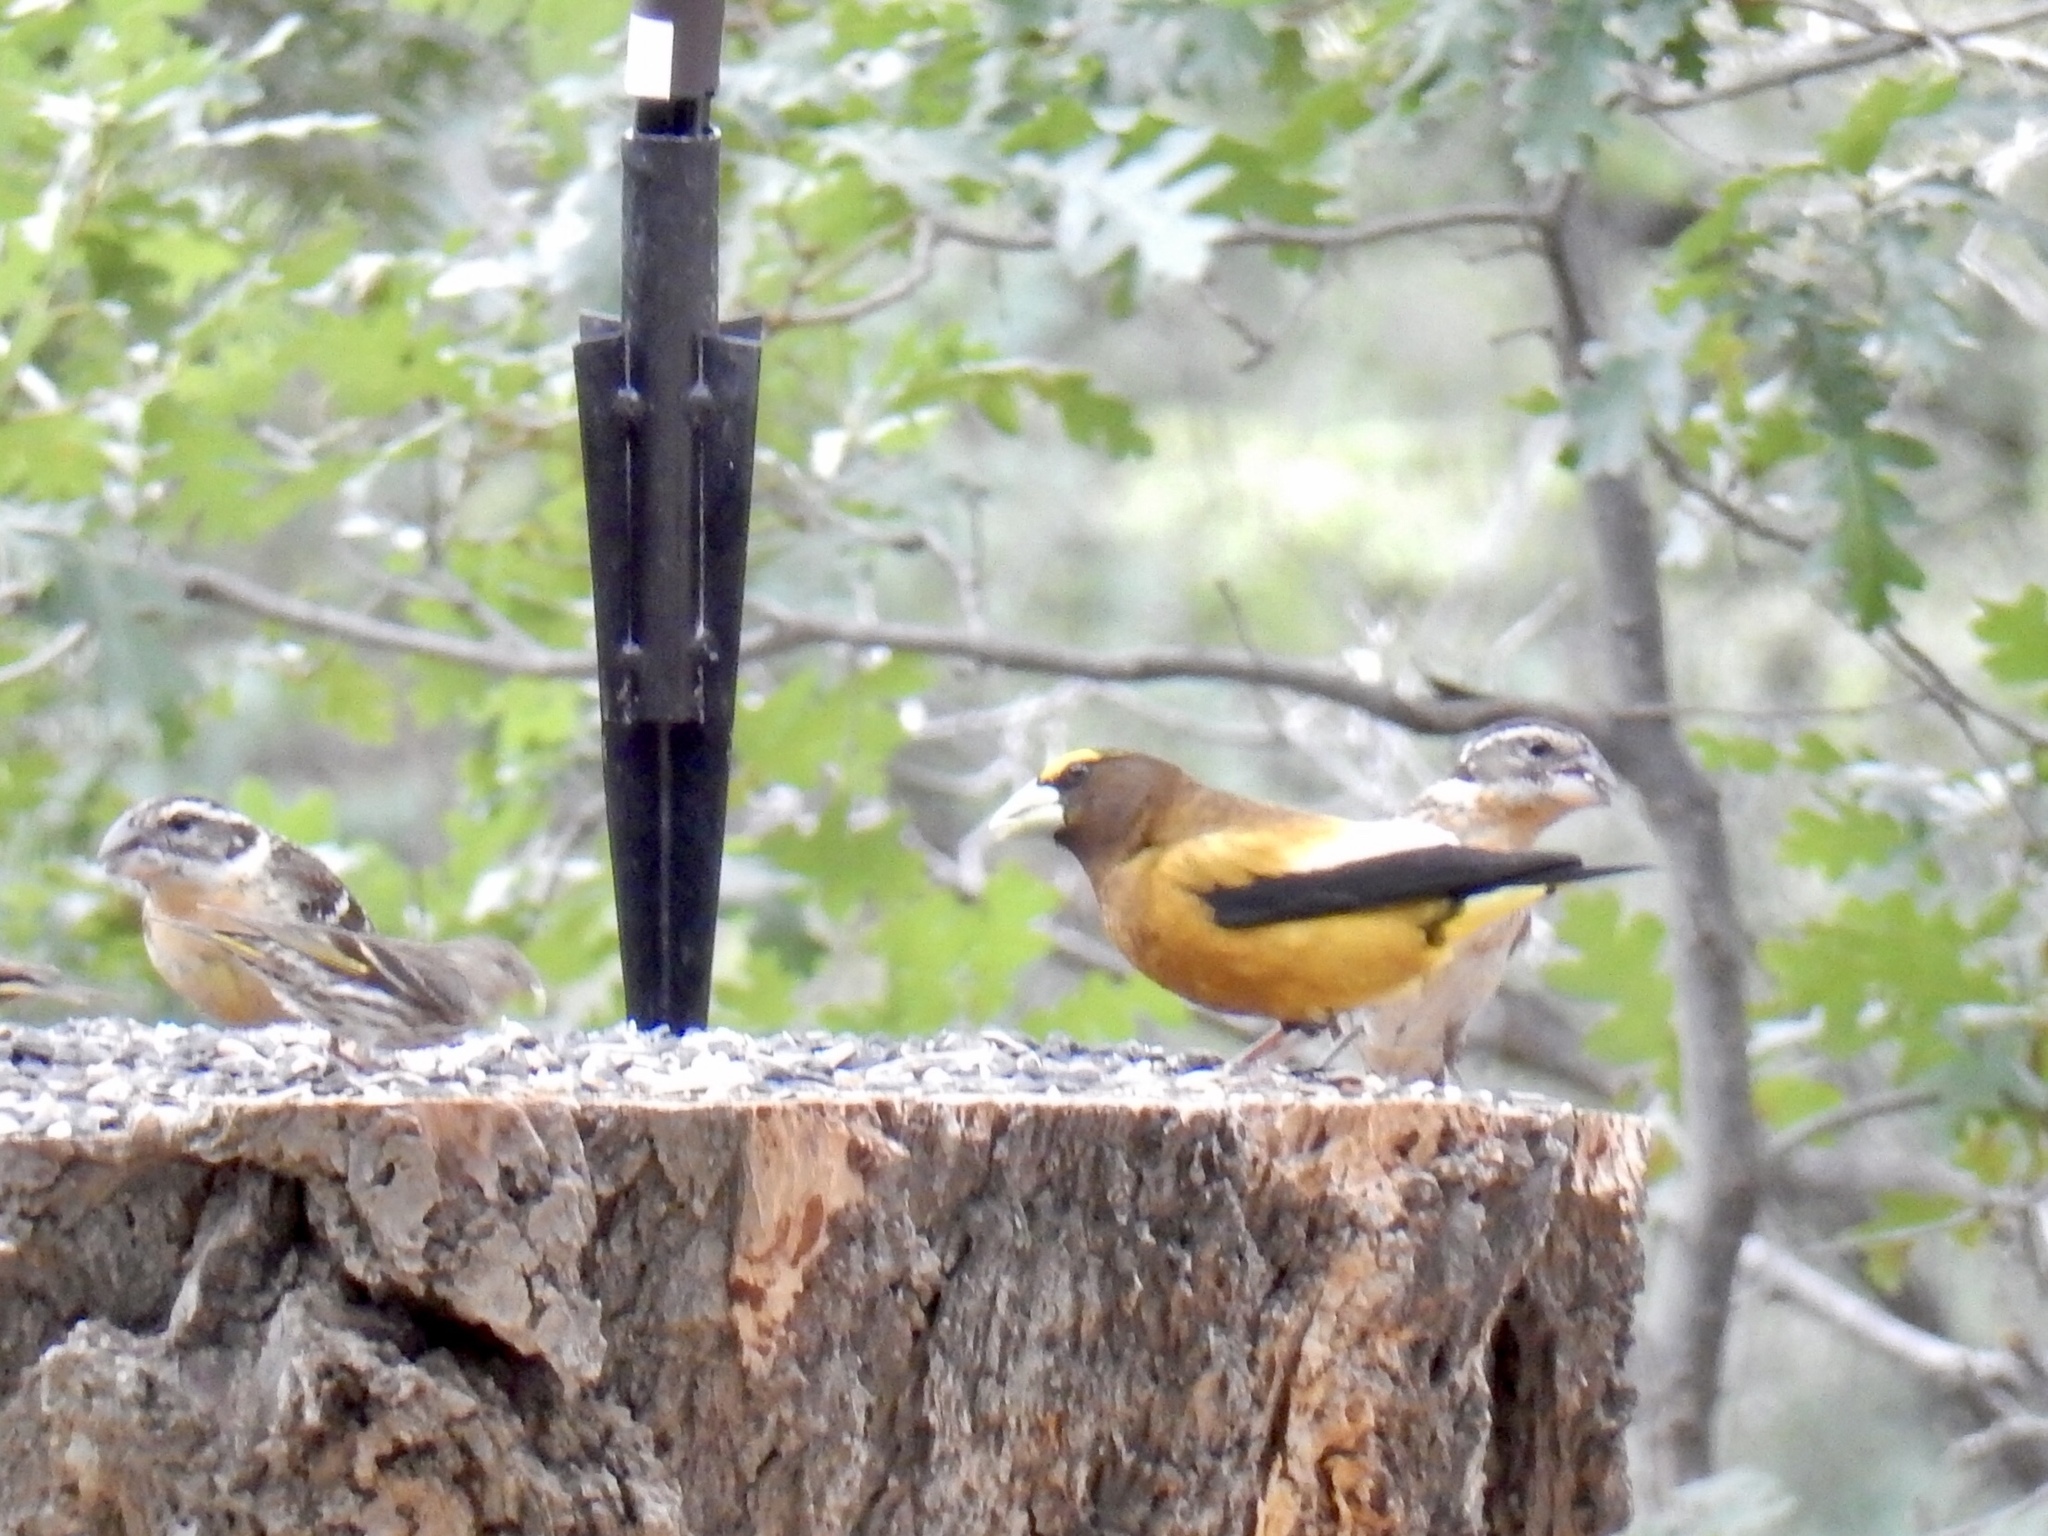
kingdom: Animalia
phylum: Chordata
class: Aves
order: Passeriformes
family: Fringillidae
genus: Hesperiphona
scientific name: Hesperiphona vespertina
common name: Evening grosbeak
